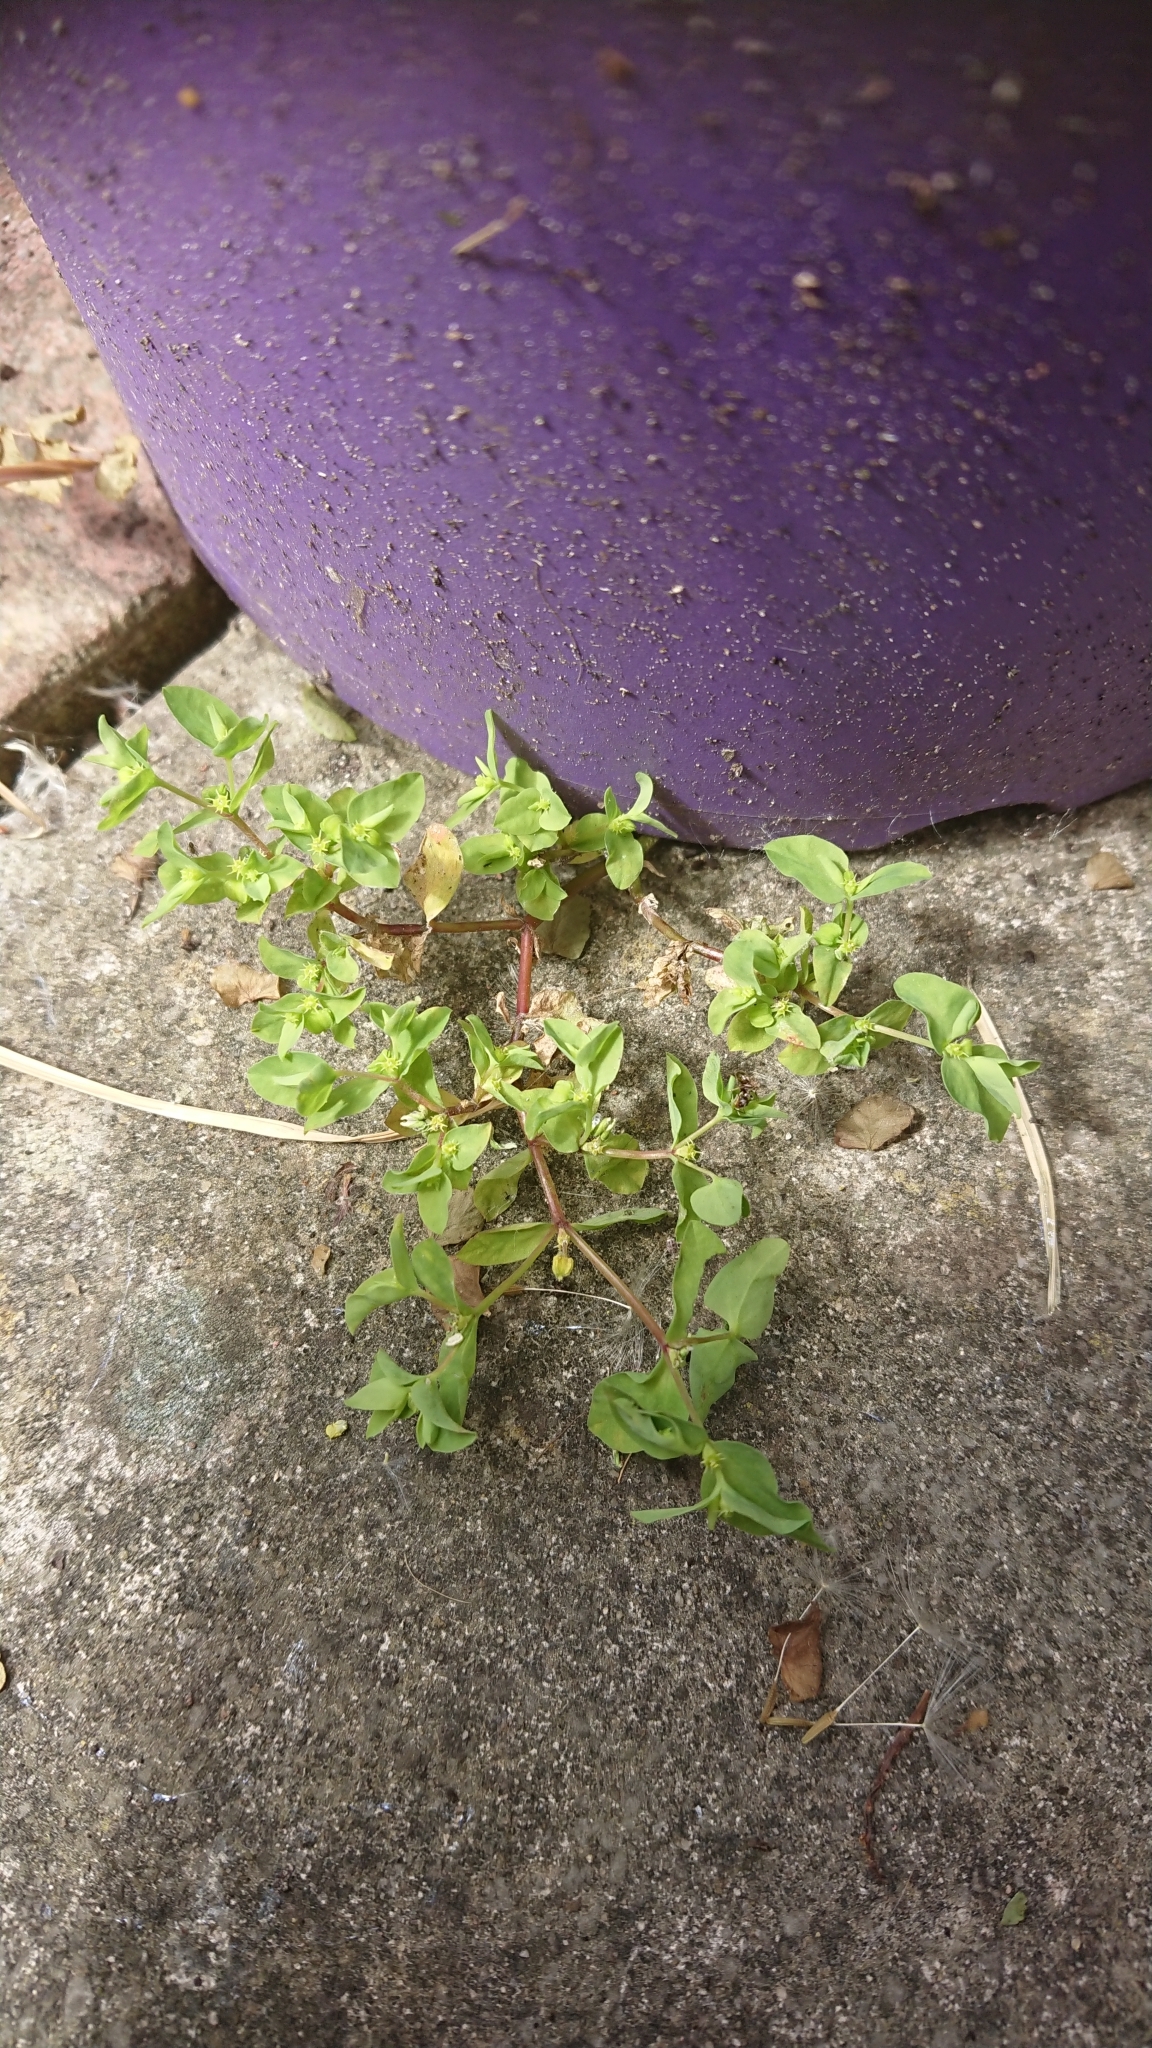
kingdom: Plantae
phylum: Tracheophyta
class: Magnoliopsida
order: Malpighiales
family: Euphorbiaceae
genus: Euphorbia
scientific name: Euphorbia peplus
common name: Petty spurge
